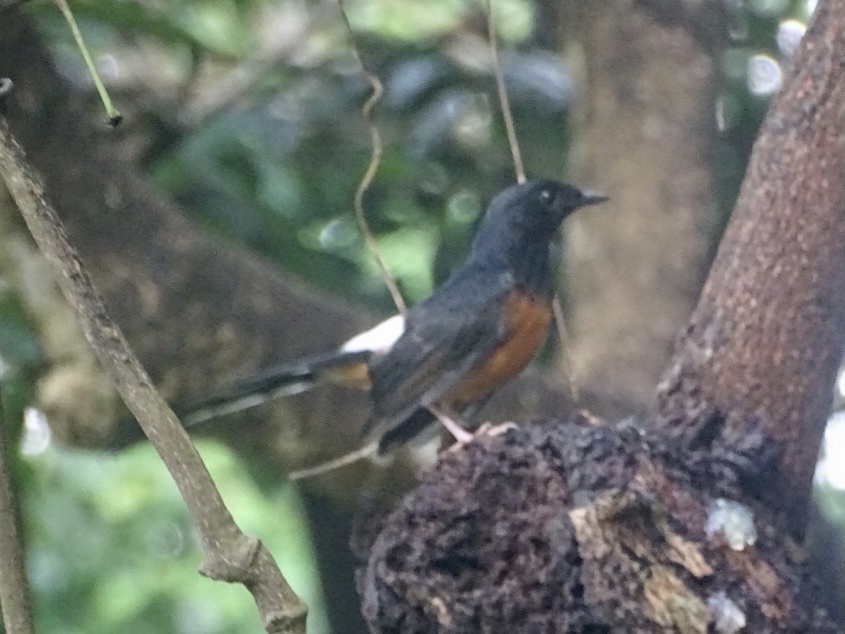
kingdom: Animalia
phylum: Chordata
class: Aves
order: Passeriformes
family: Muscicapidae
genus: Copsychus
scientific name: Copsychus malabaricus
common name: White-rumped shama
